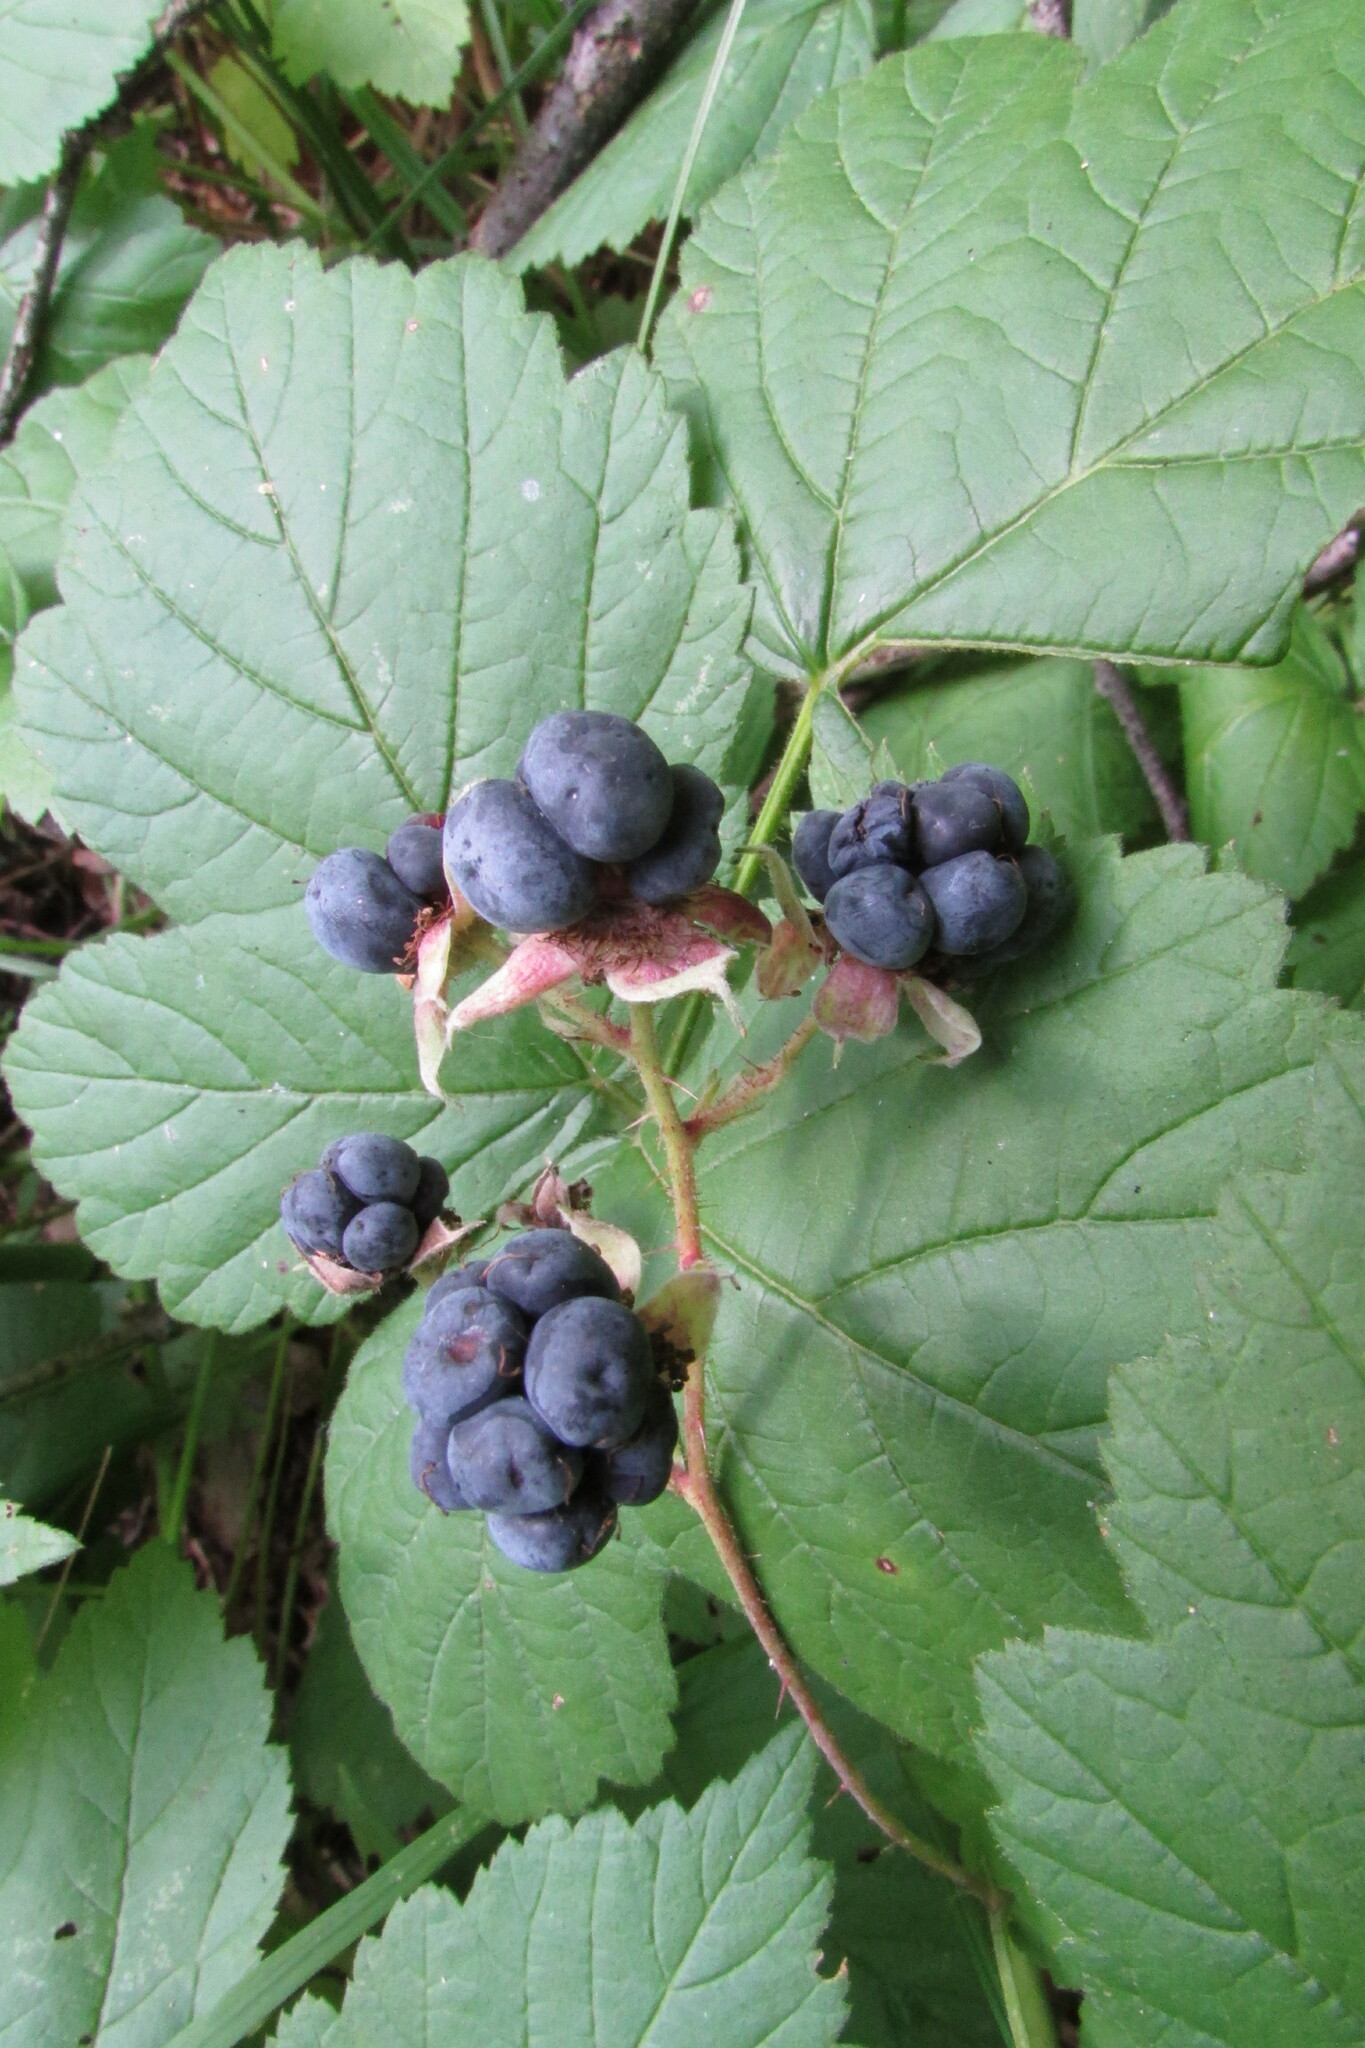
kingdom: Plantae
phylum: Tracheophyta
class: Magnoliopsida
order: Rosales
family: Rosaceae
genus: Rubus
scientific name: Rubus caesius
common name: Dewberry
